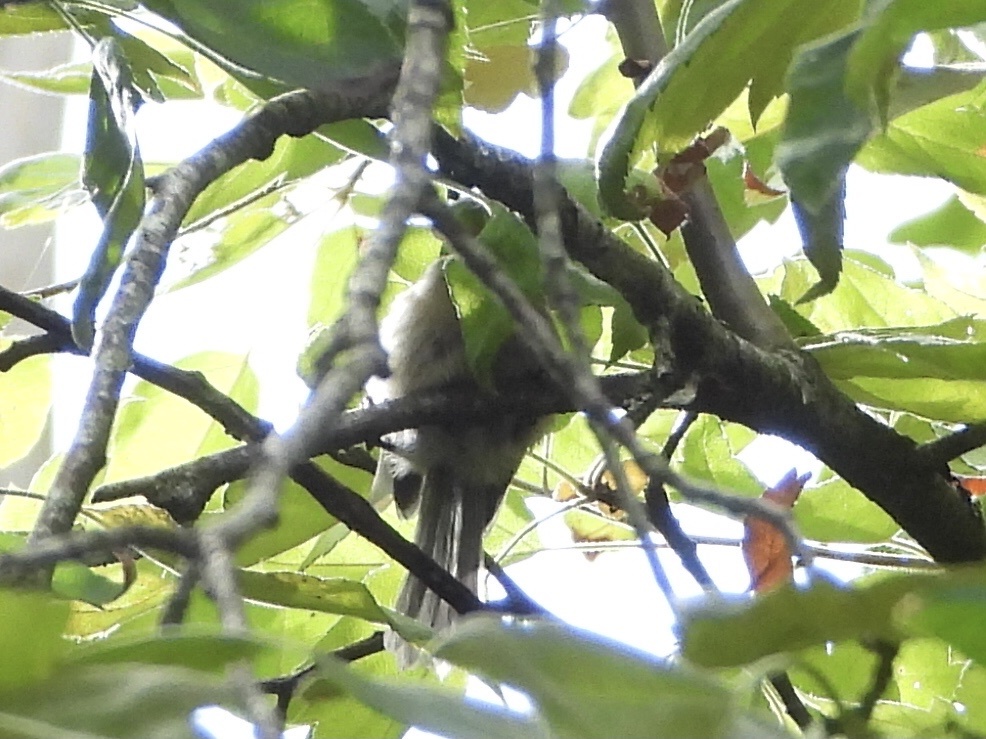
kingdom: Animalia
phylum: Chordata
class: Aves
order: Passeriformes
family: Aegithalidae
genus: Psaltriparus
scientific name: Psaltriparus minimus
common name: American bushtit
